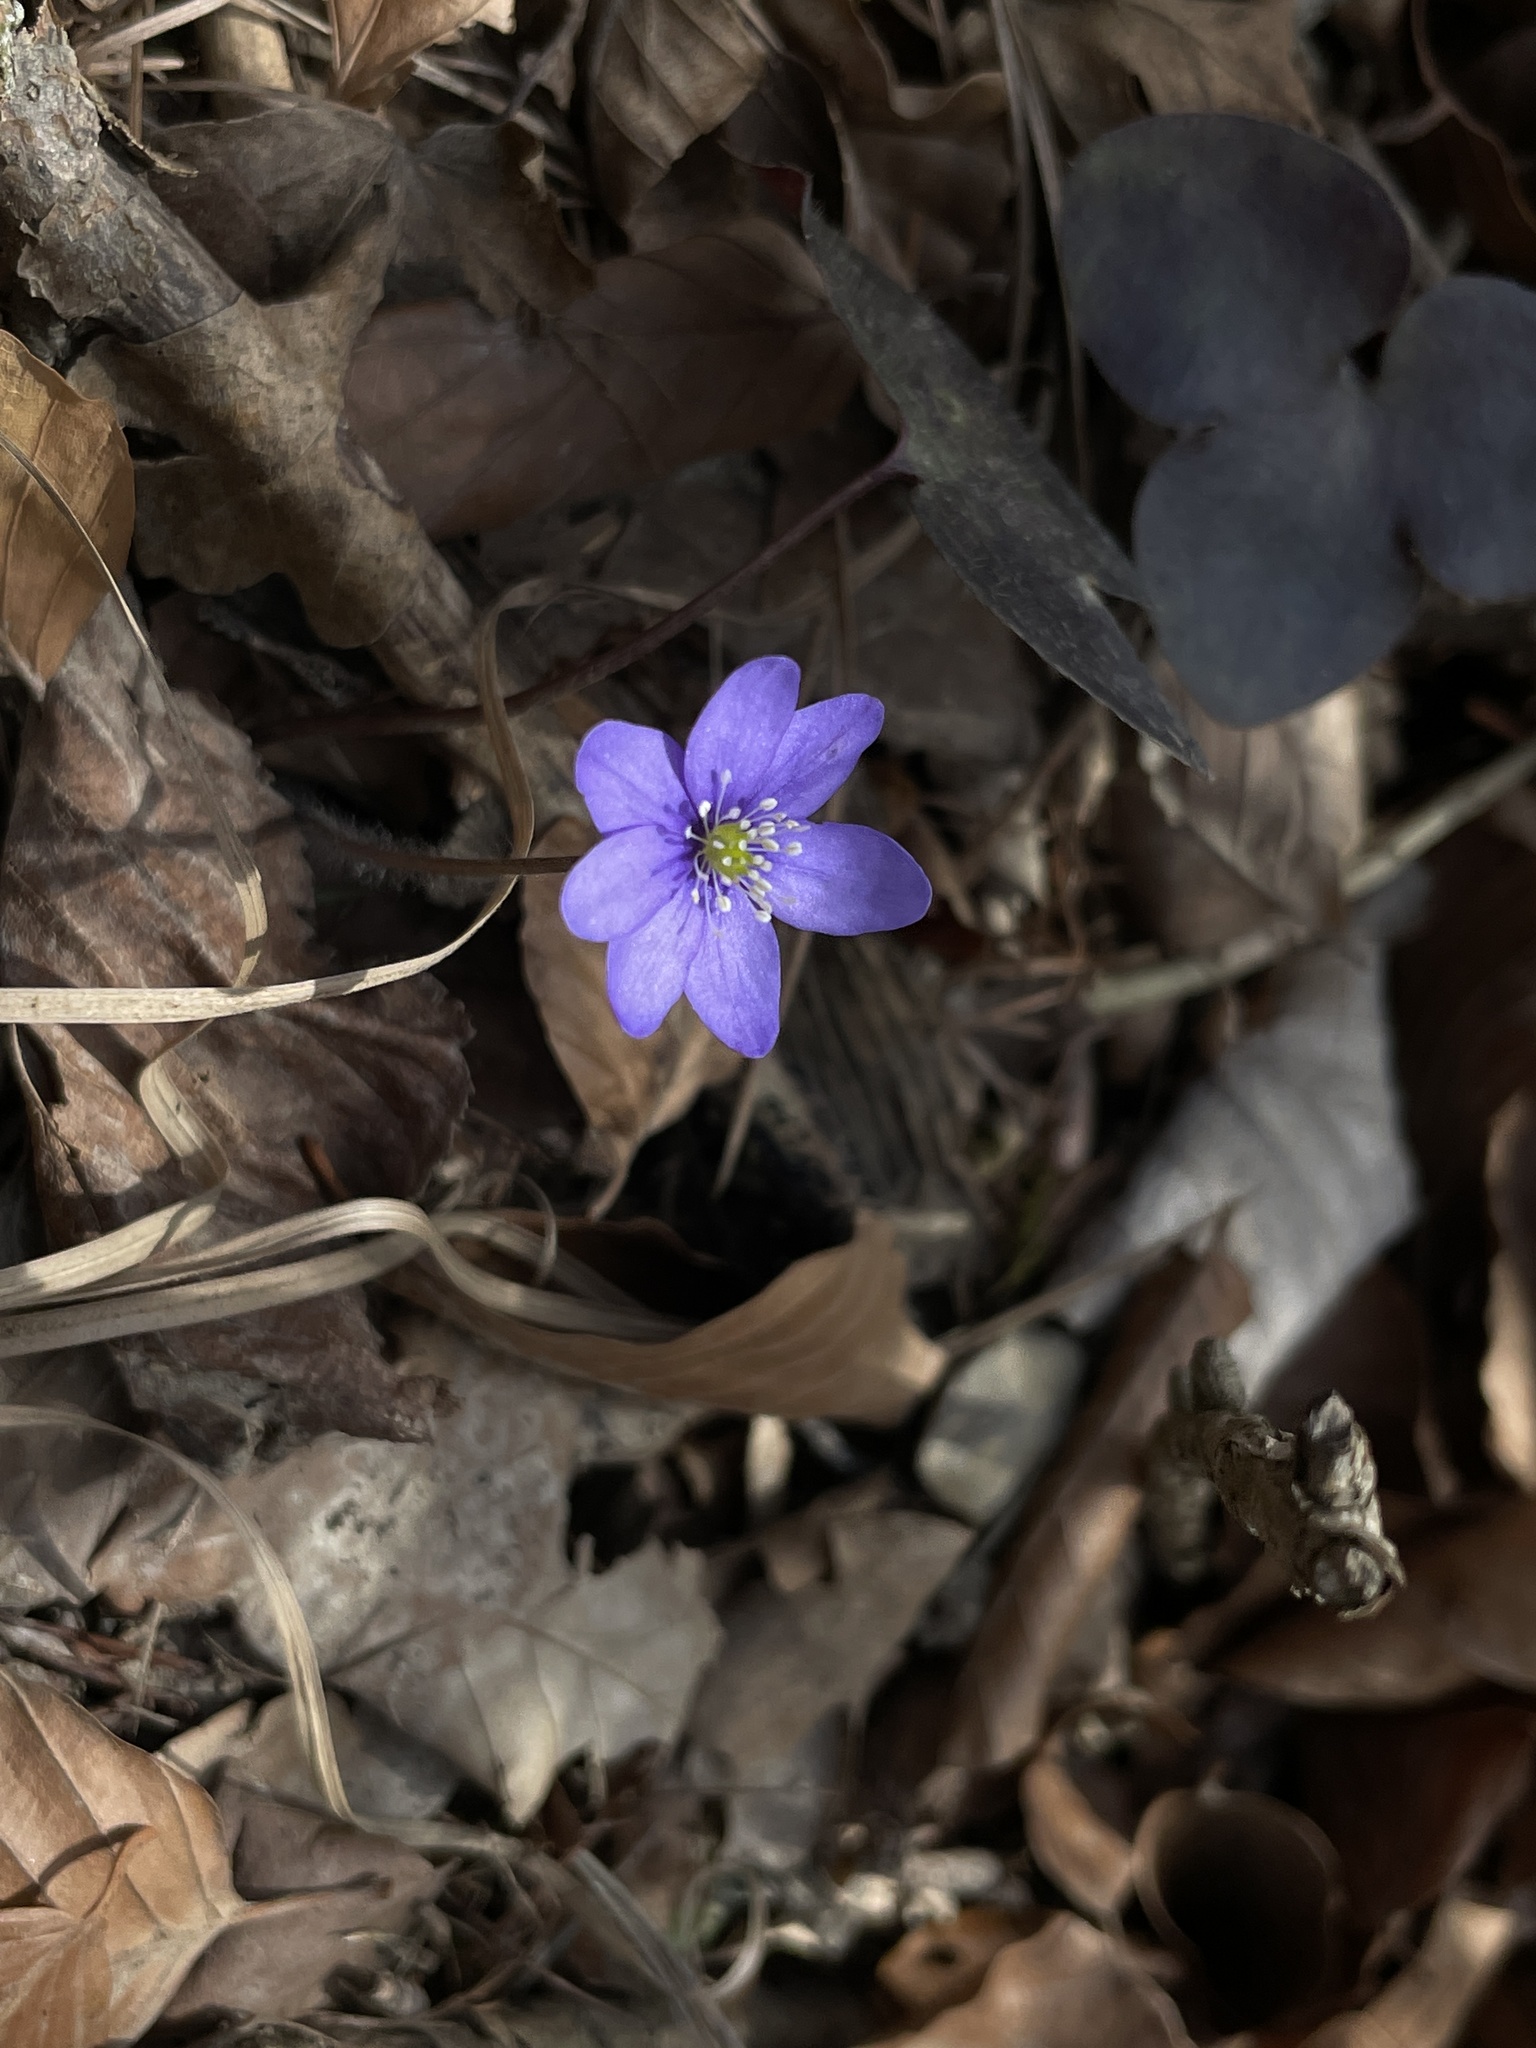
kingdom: Plantae
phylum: Tracheophyta
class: Magnoliopsida
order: Ranunculales
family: Ranunculaceae
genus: Hepatica
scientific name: Hepatica nobilis
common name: Liverleaf
